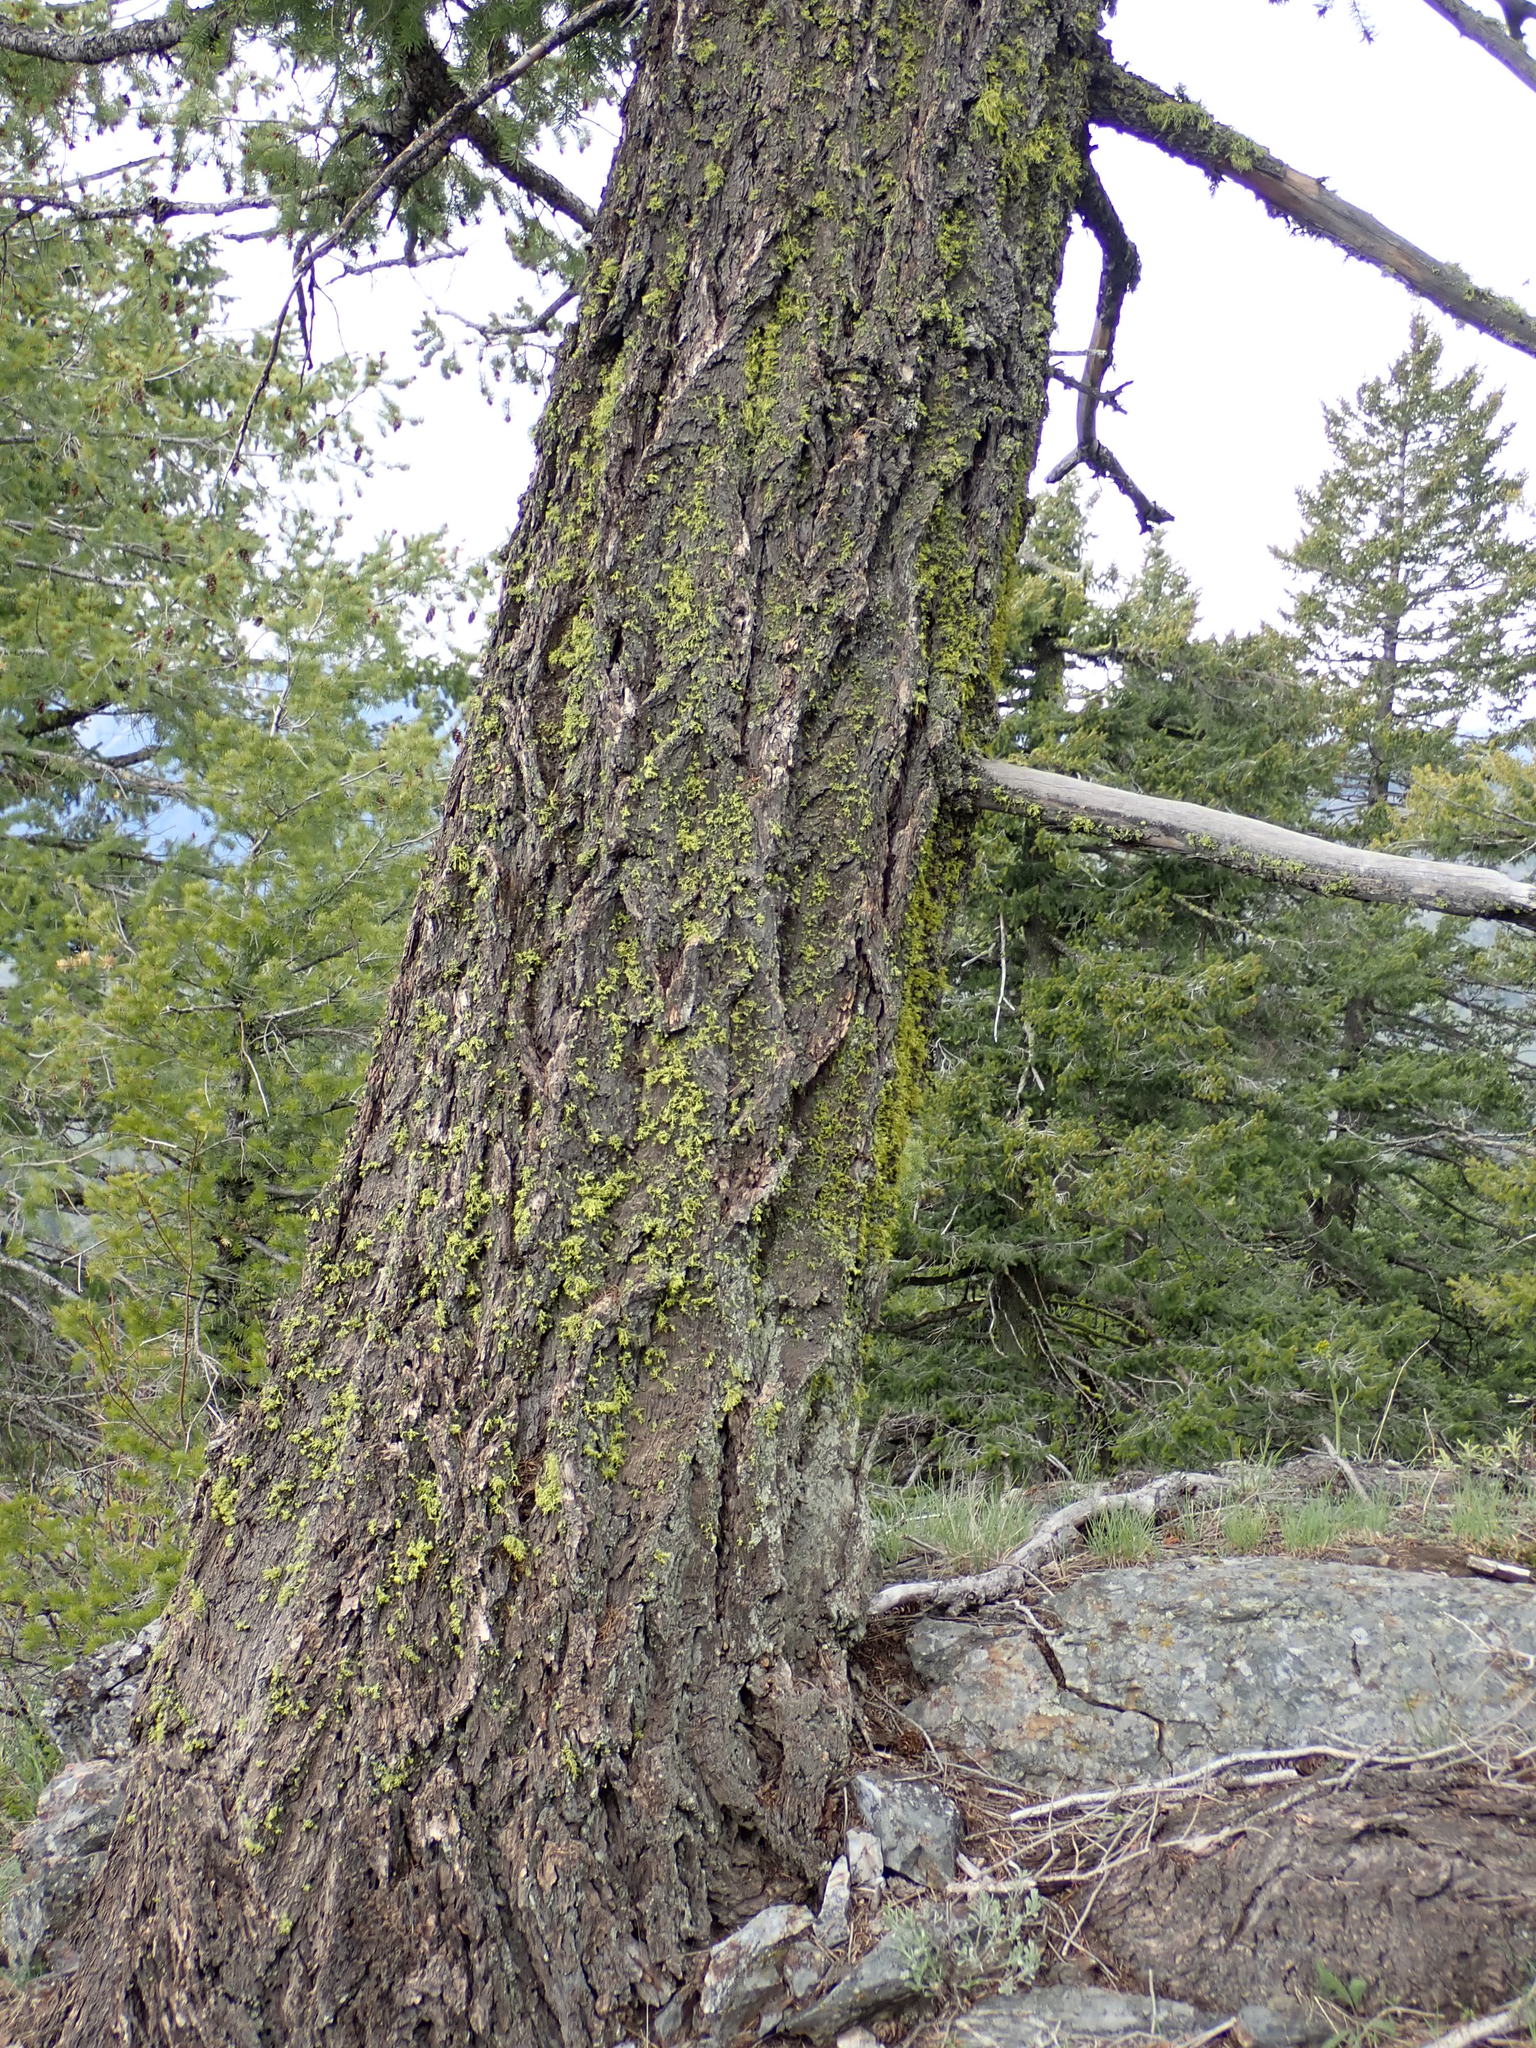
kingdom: Plantae
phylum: Tracheophyta
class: Pinopsida
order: Pinales
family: Pinaceae
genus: Pseudotsuga
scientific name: Pseudotsuga menziesii
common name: Douglas fir
